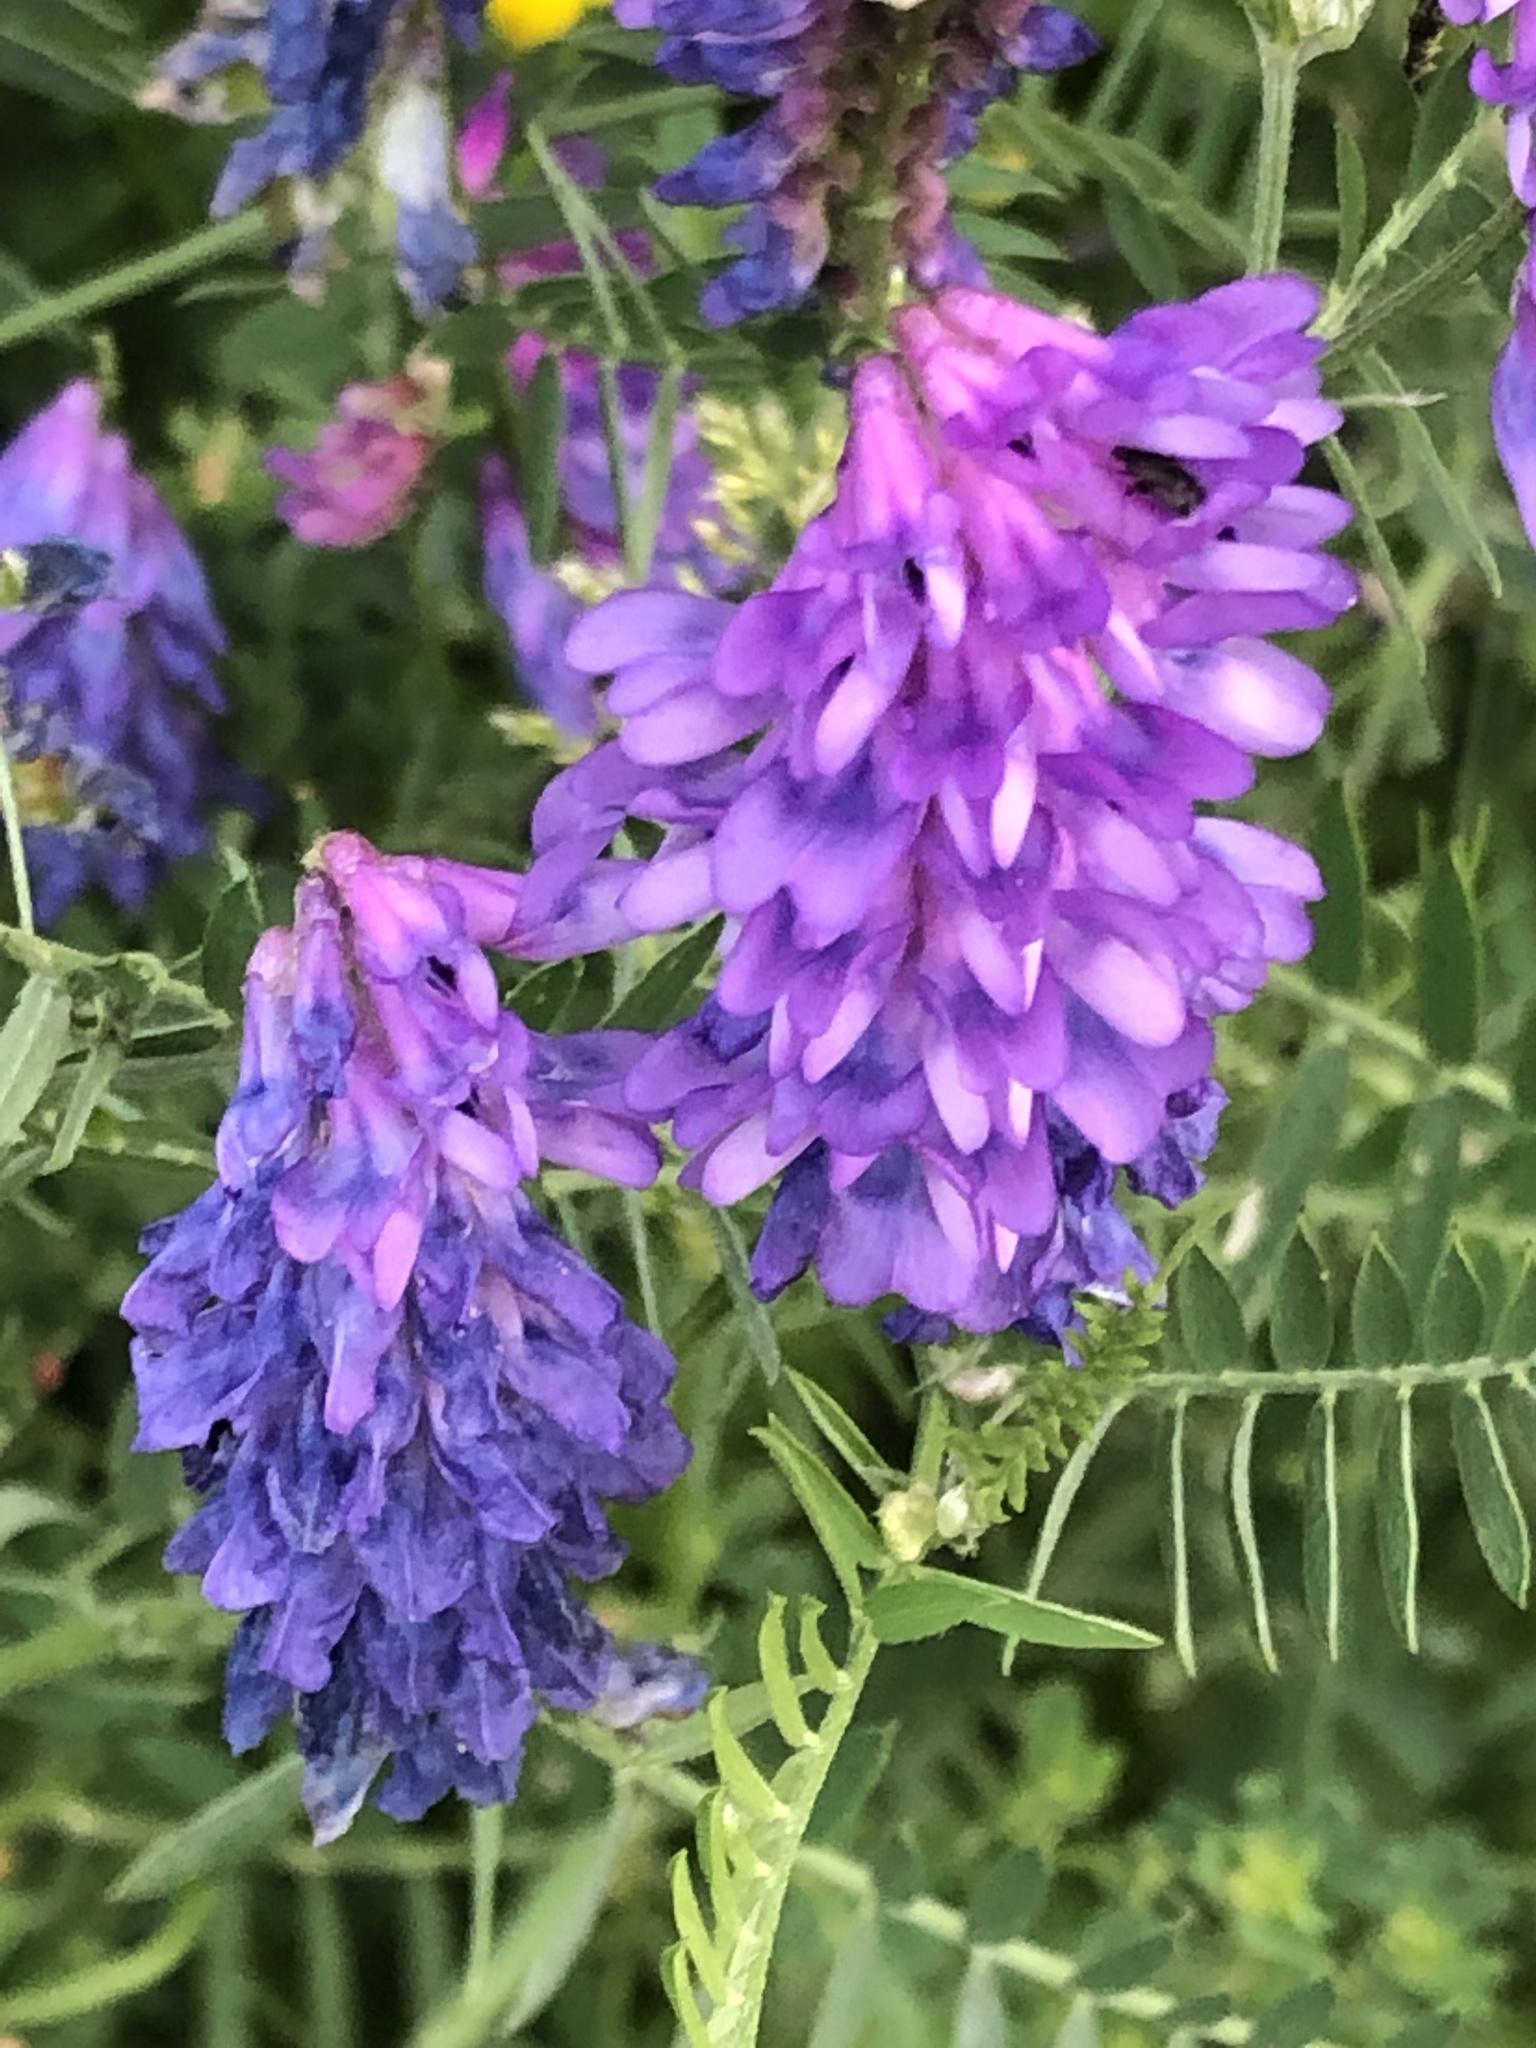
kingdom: Plantae
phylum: Tracheophyta
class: Magnoliopsida
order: Fabales
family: Fabaceae
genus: Vicia
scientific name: Vicia cracca
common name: Bird vetch
